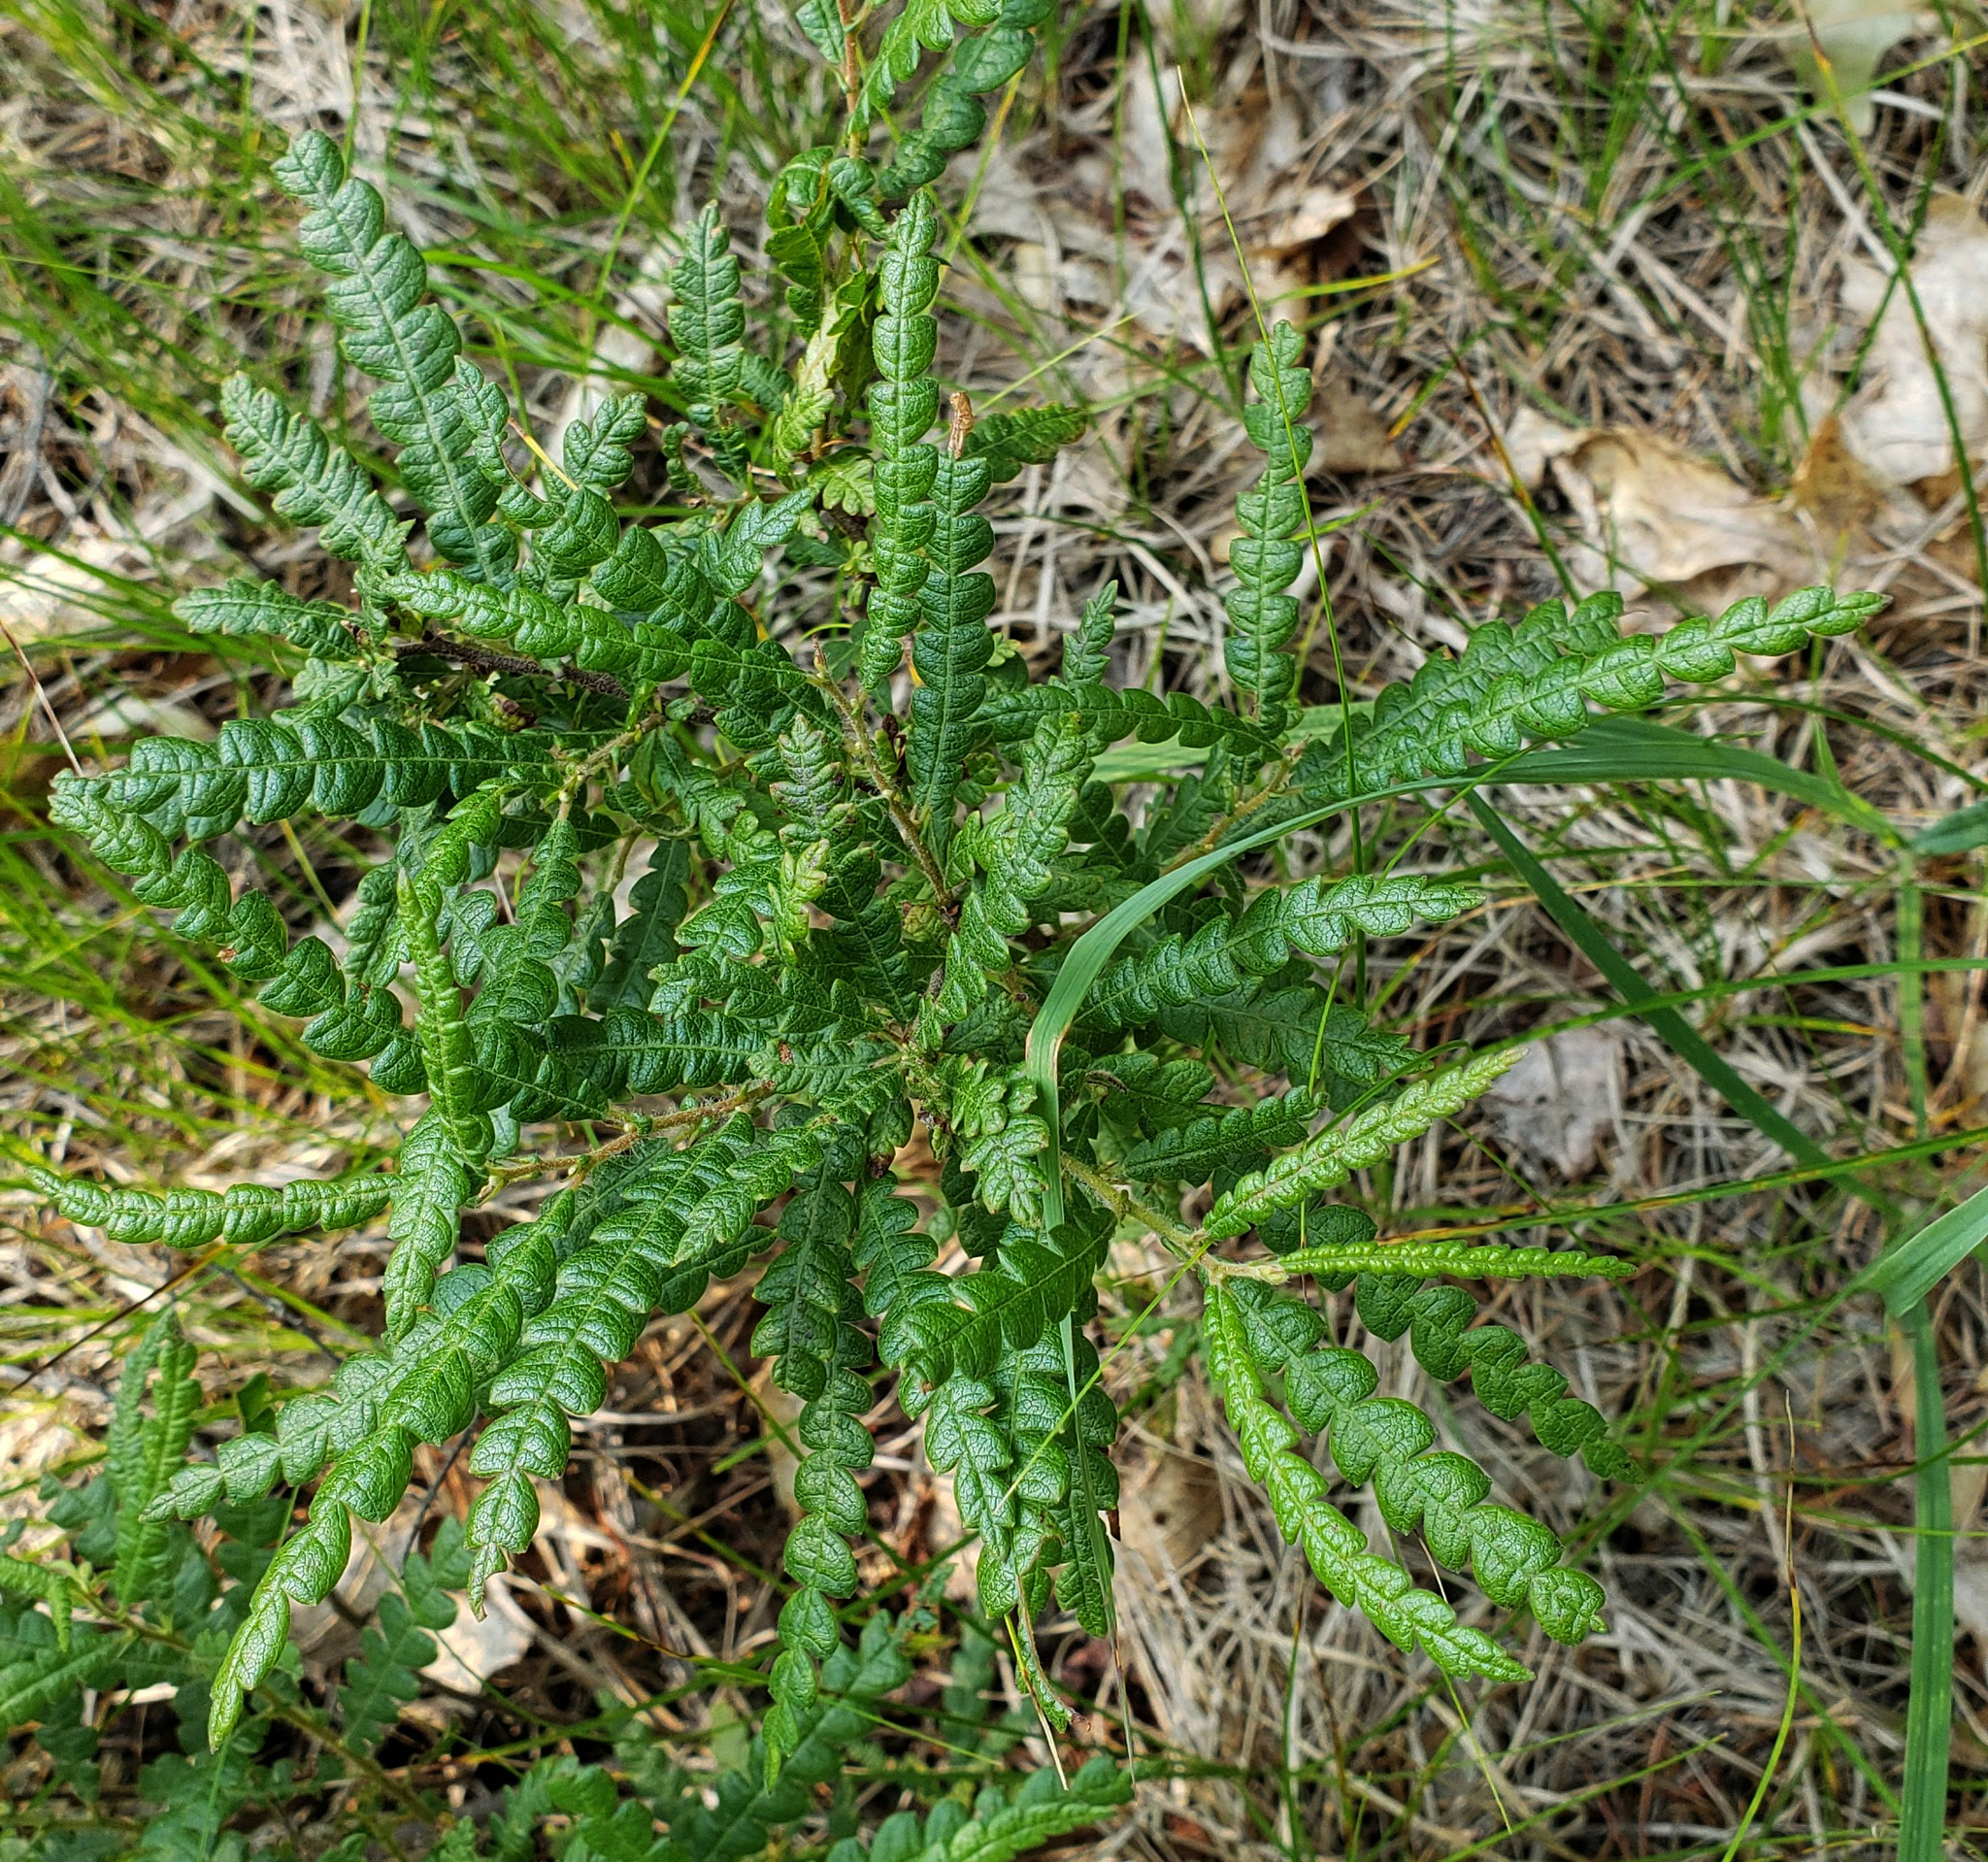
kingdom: Plantae
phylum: Tracheophyta
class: Magnoliopsida
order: Fagales
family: Myricaceae
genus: Comptonia
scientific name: Comptonia peregrina
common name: Sweet-fern
